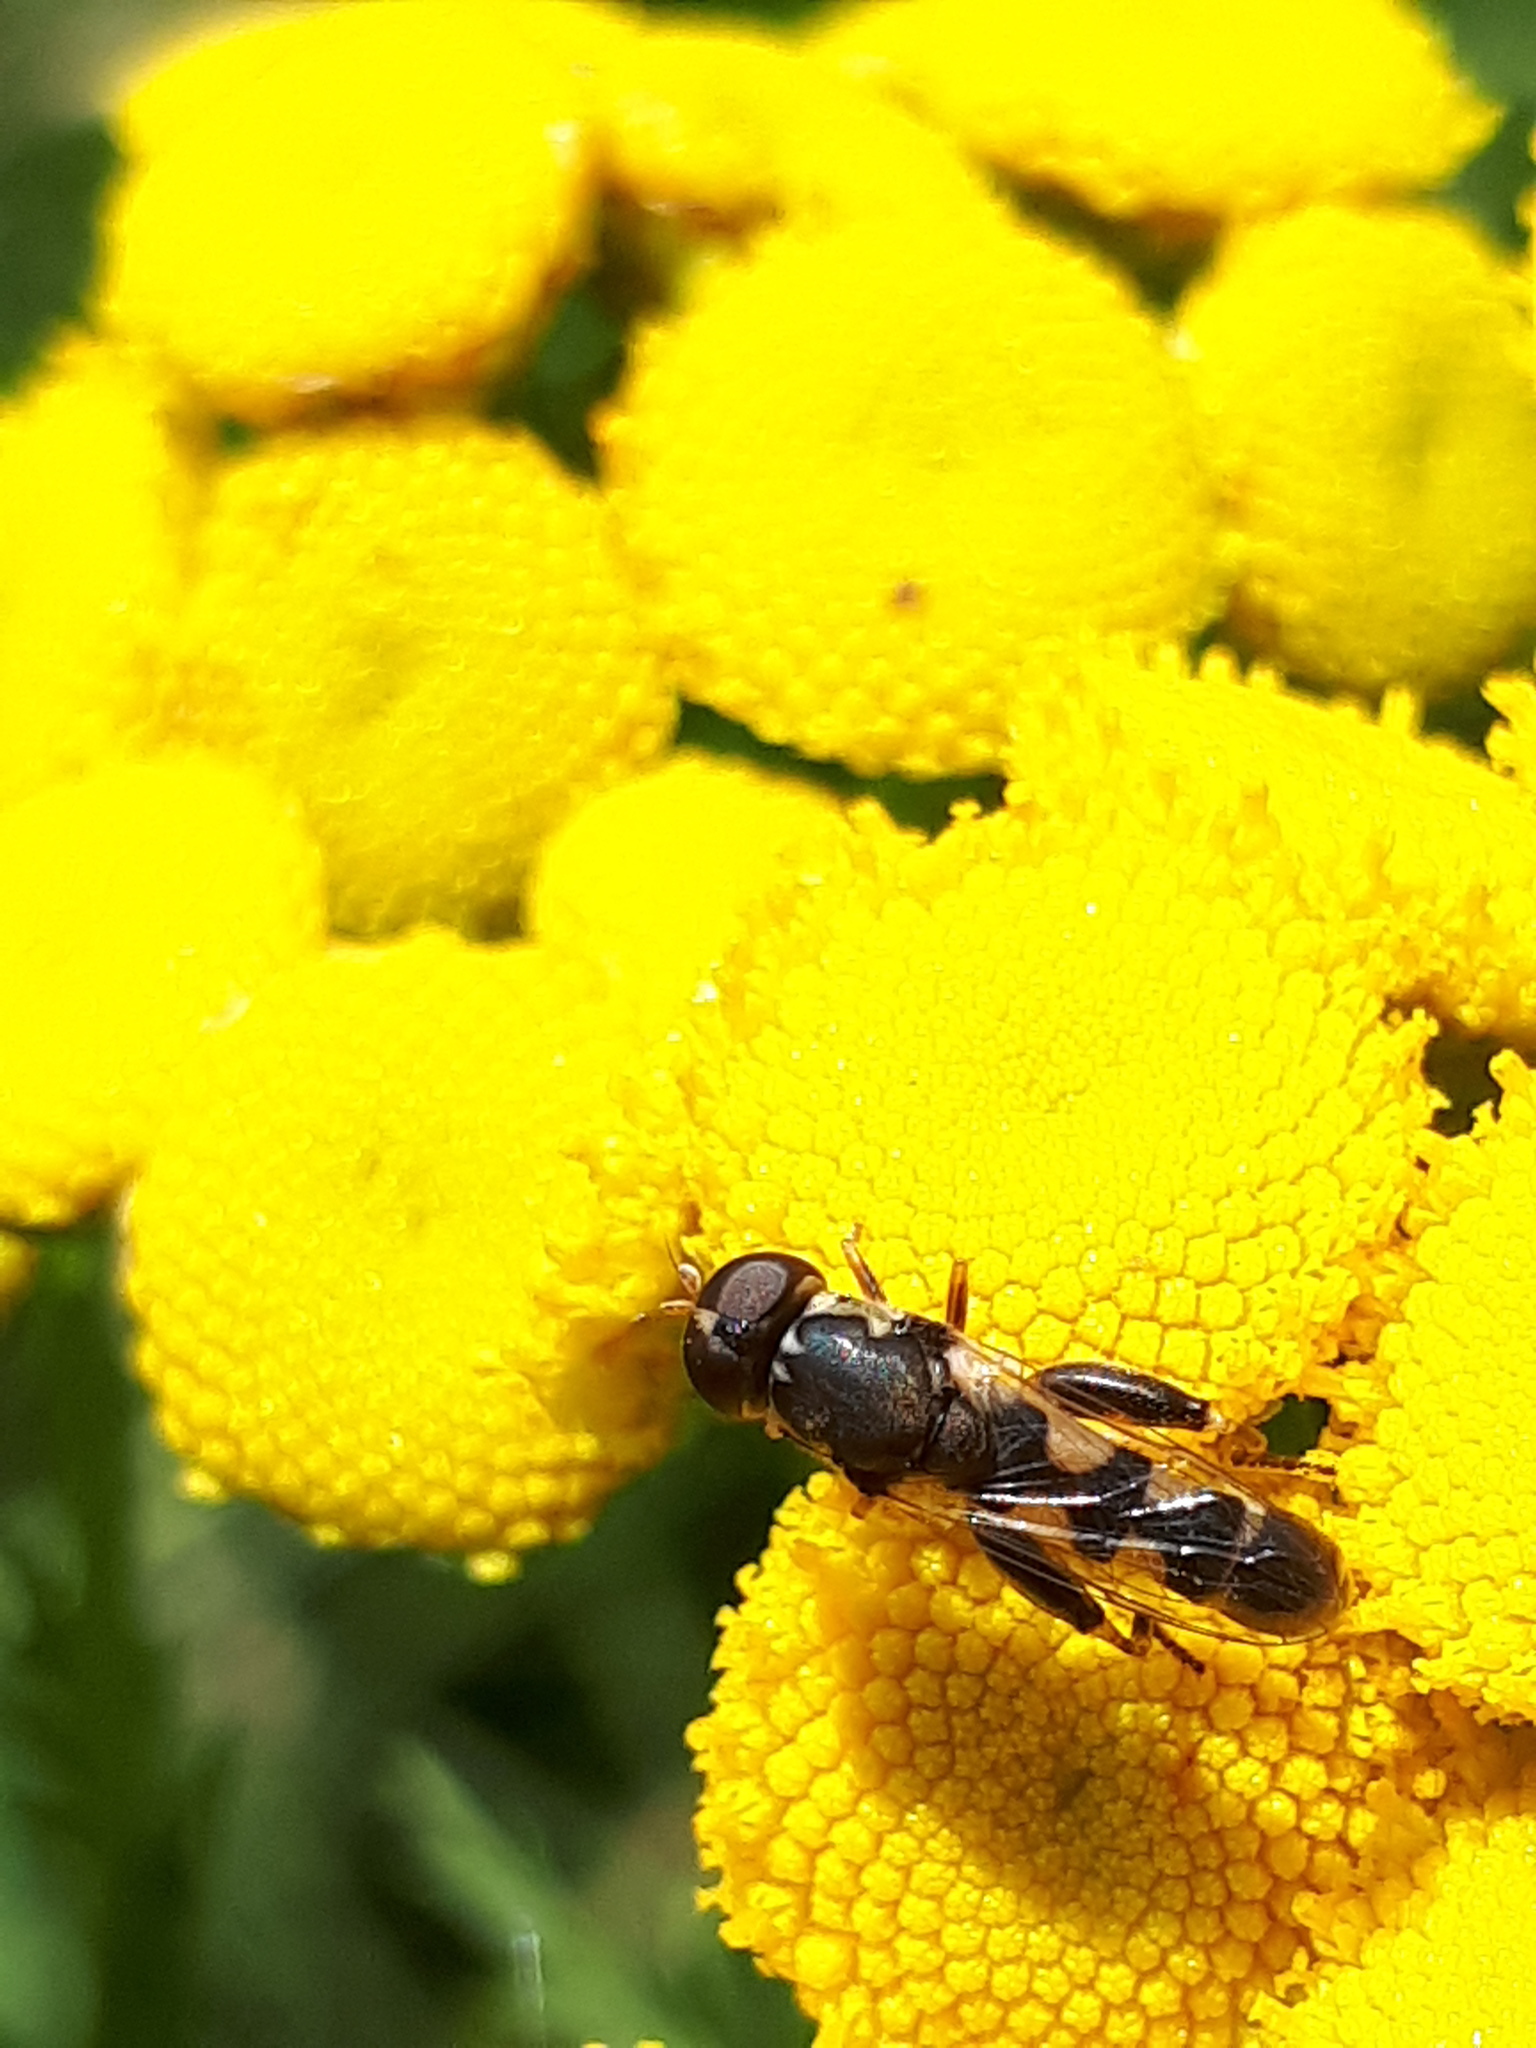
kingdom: Animalia
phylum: Arthropoda
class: Insecta
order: Diptera
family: Syrphidae
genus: Syritta
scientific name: Syritta pipiens
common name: Hover fly
